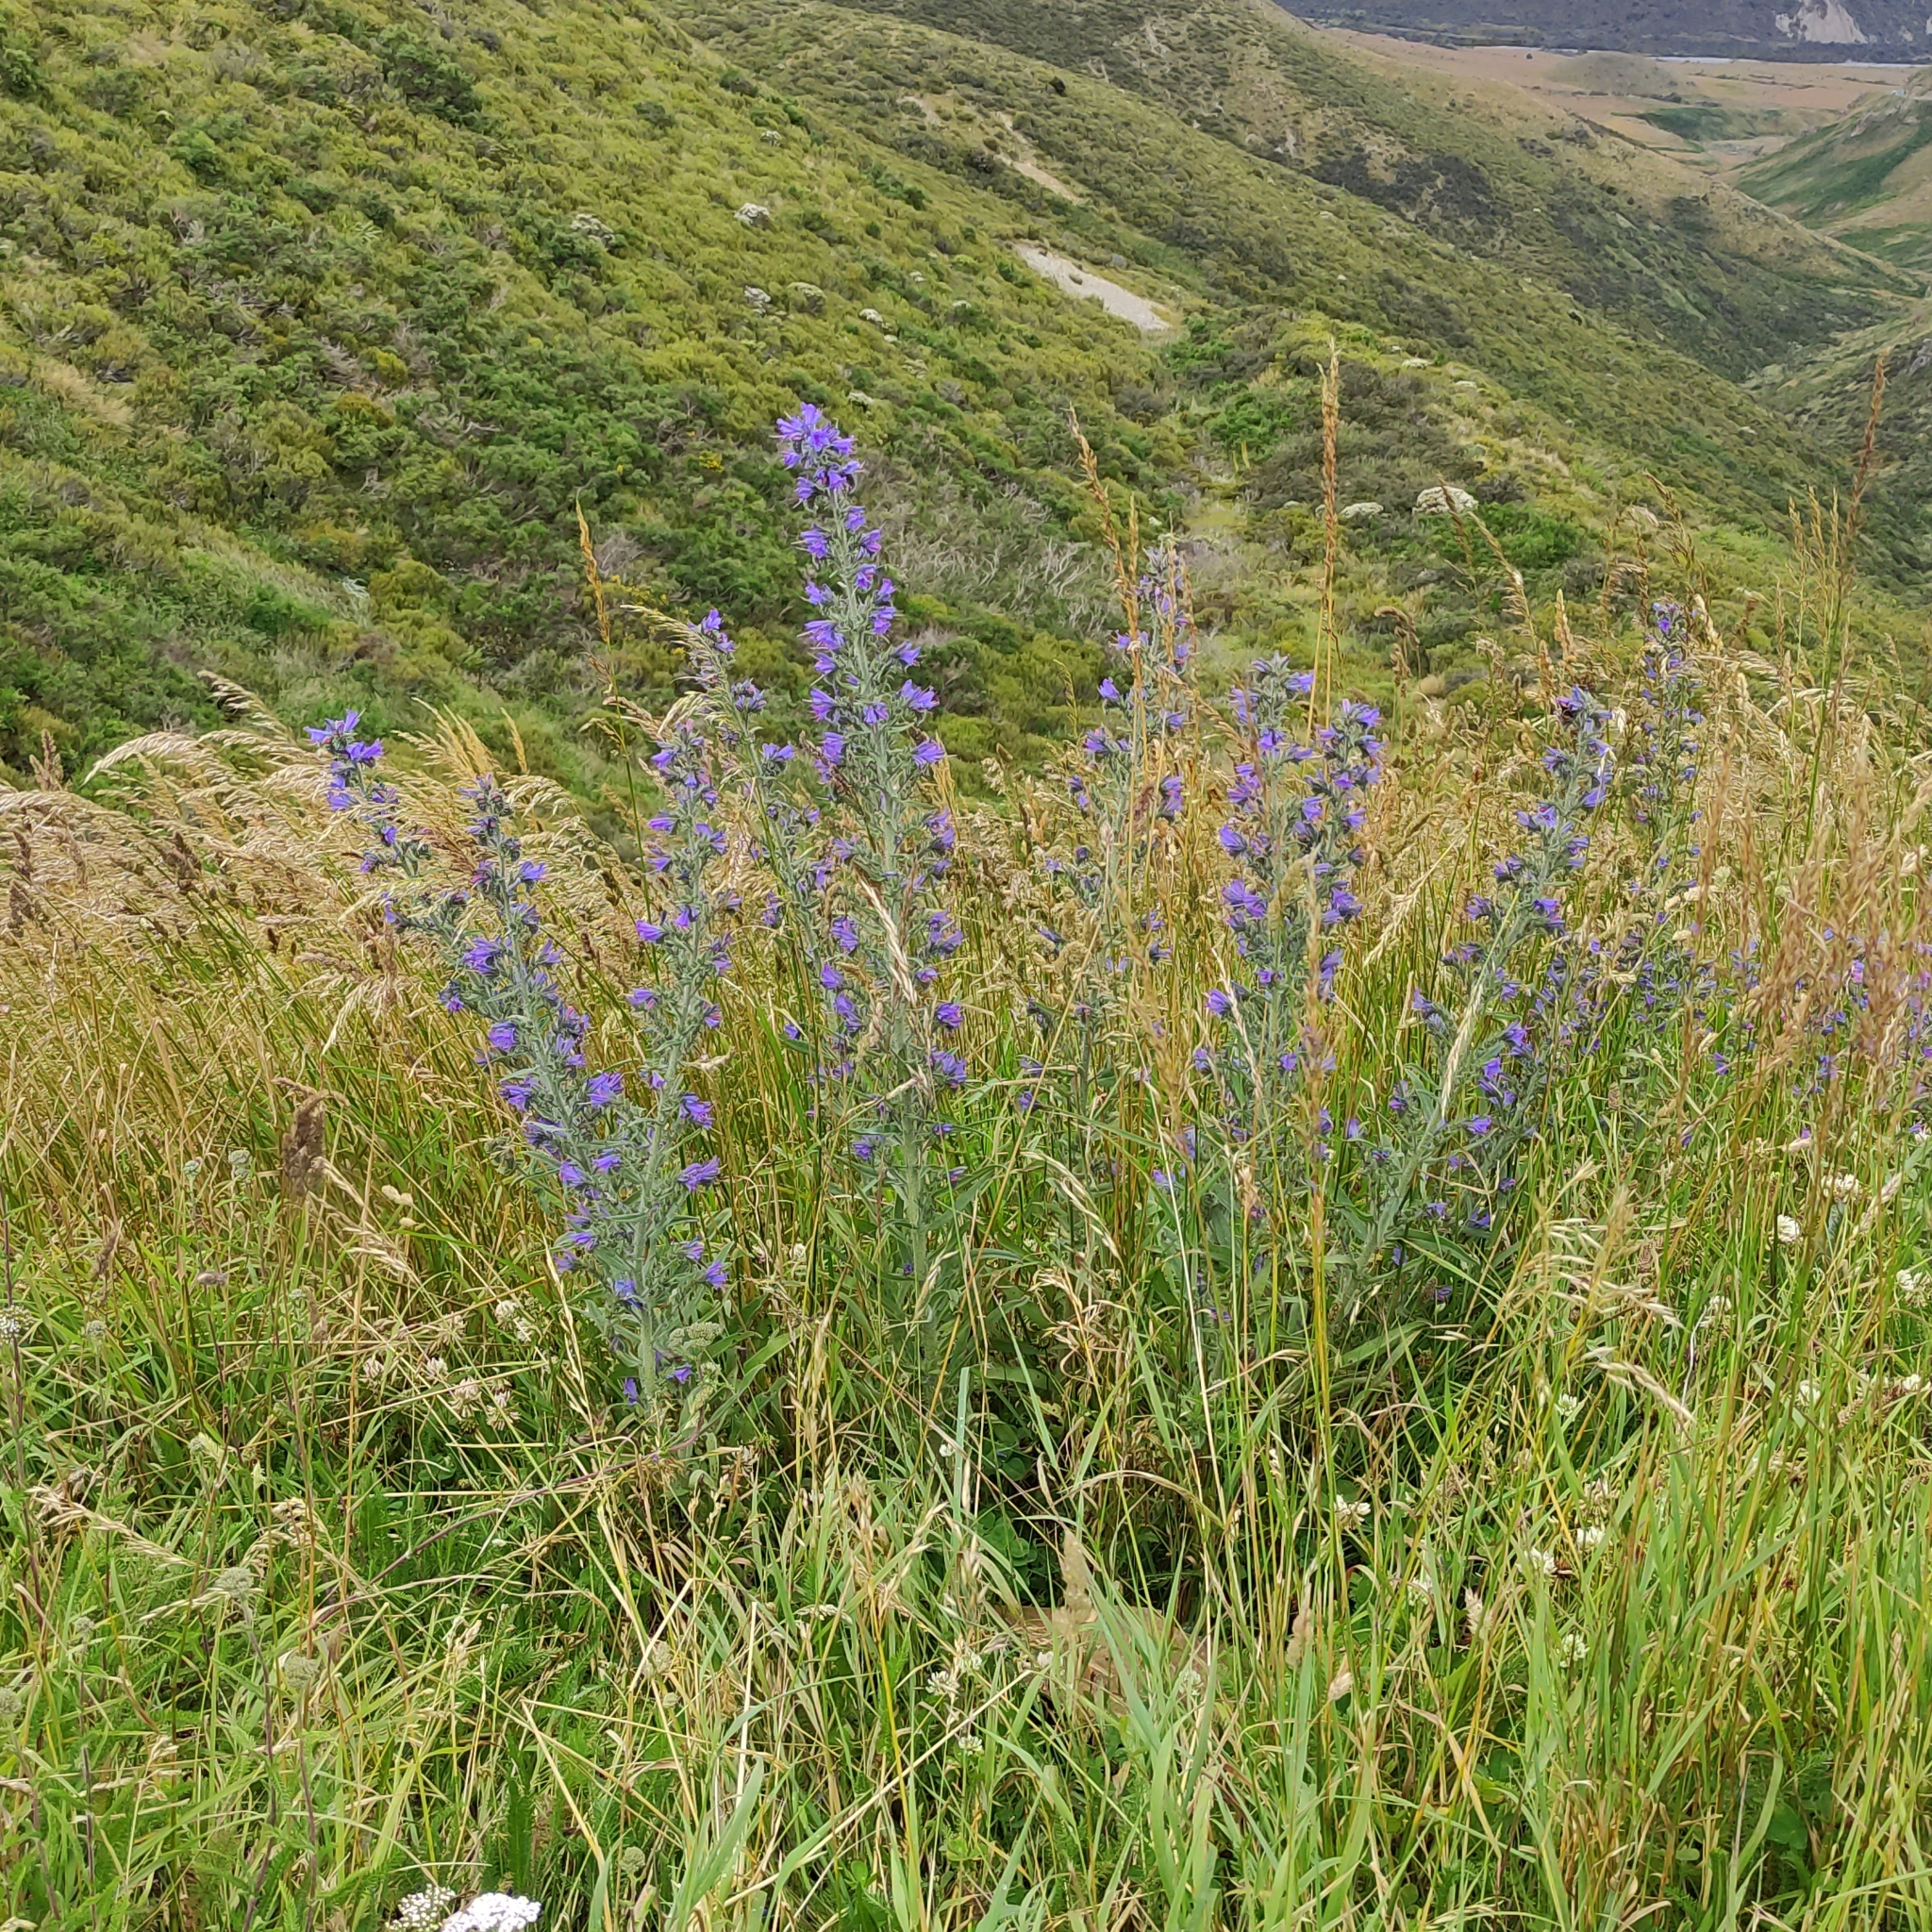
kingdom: Plantae
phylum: Tracheophyta
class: Magnoliopsida
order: Boraginales
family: Boraginaceae
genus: Echium
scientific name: Echium vulgare
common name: Common viper's bugloss
